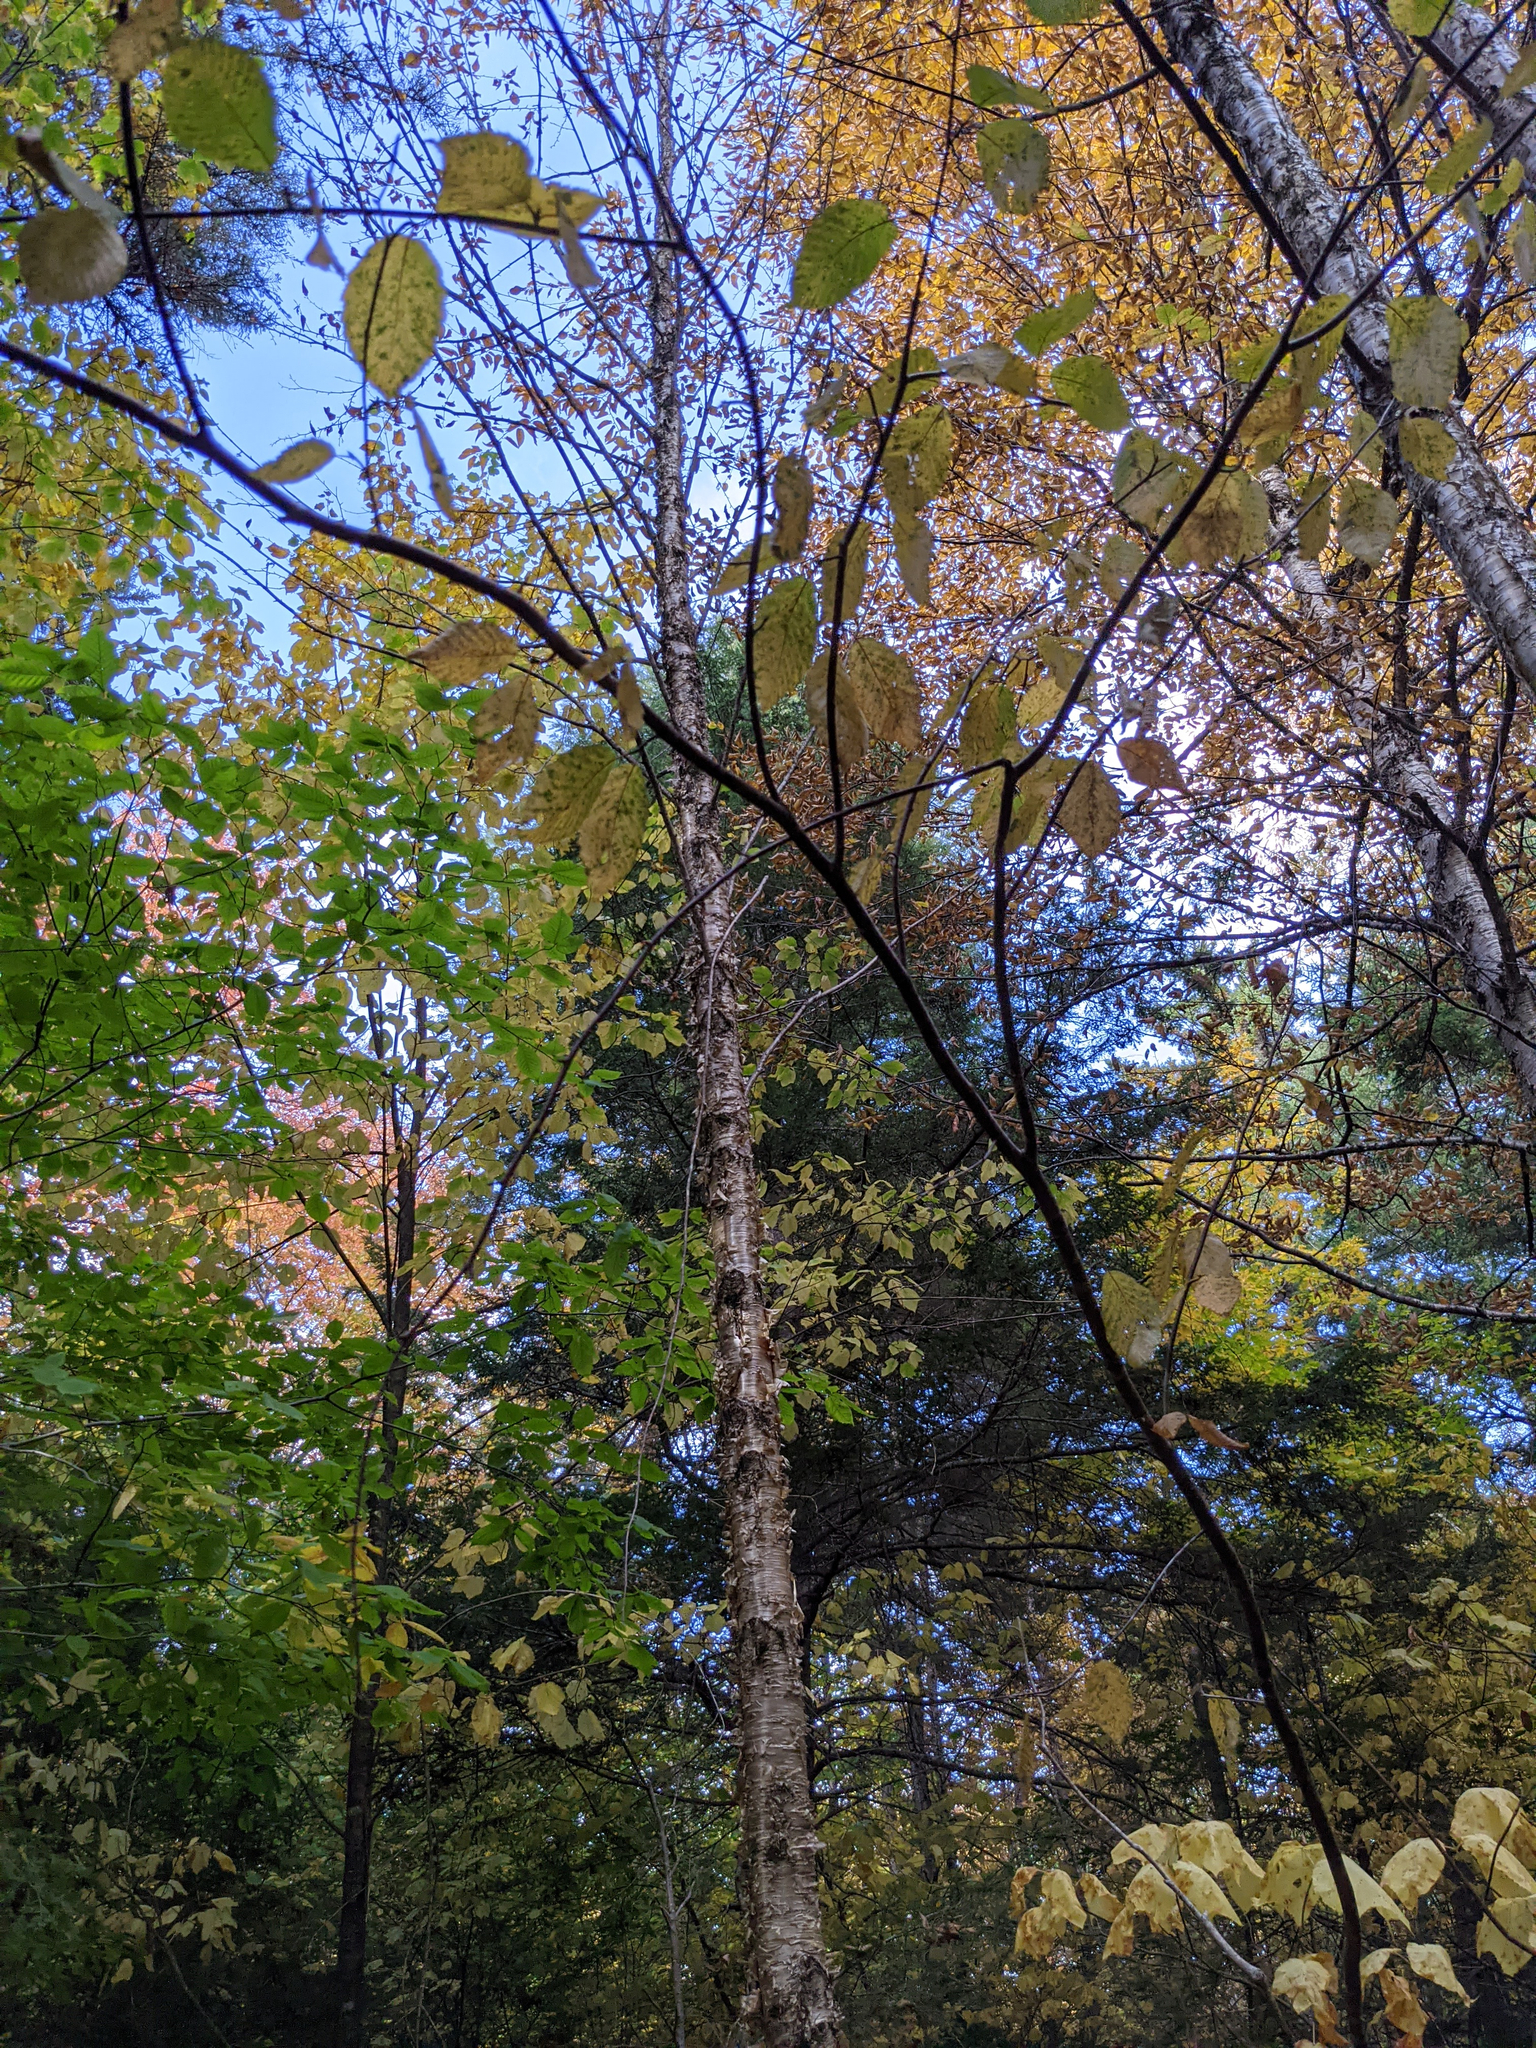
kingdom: Plantae
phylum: Tracheophyta
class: Magnoliopsida
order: Fagales
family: Betulaceae
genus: Betula
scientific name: Betula alleghaniensis
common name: Yellow birch
